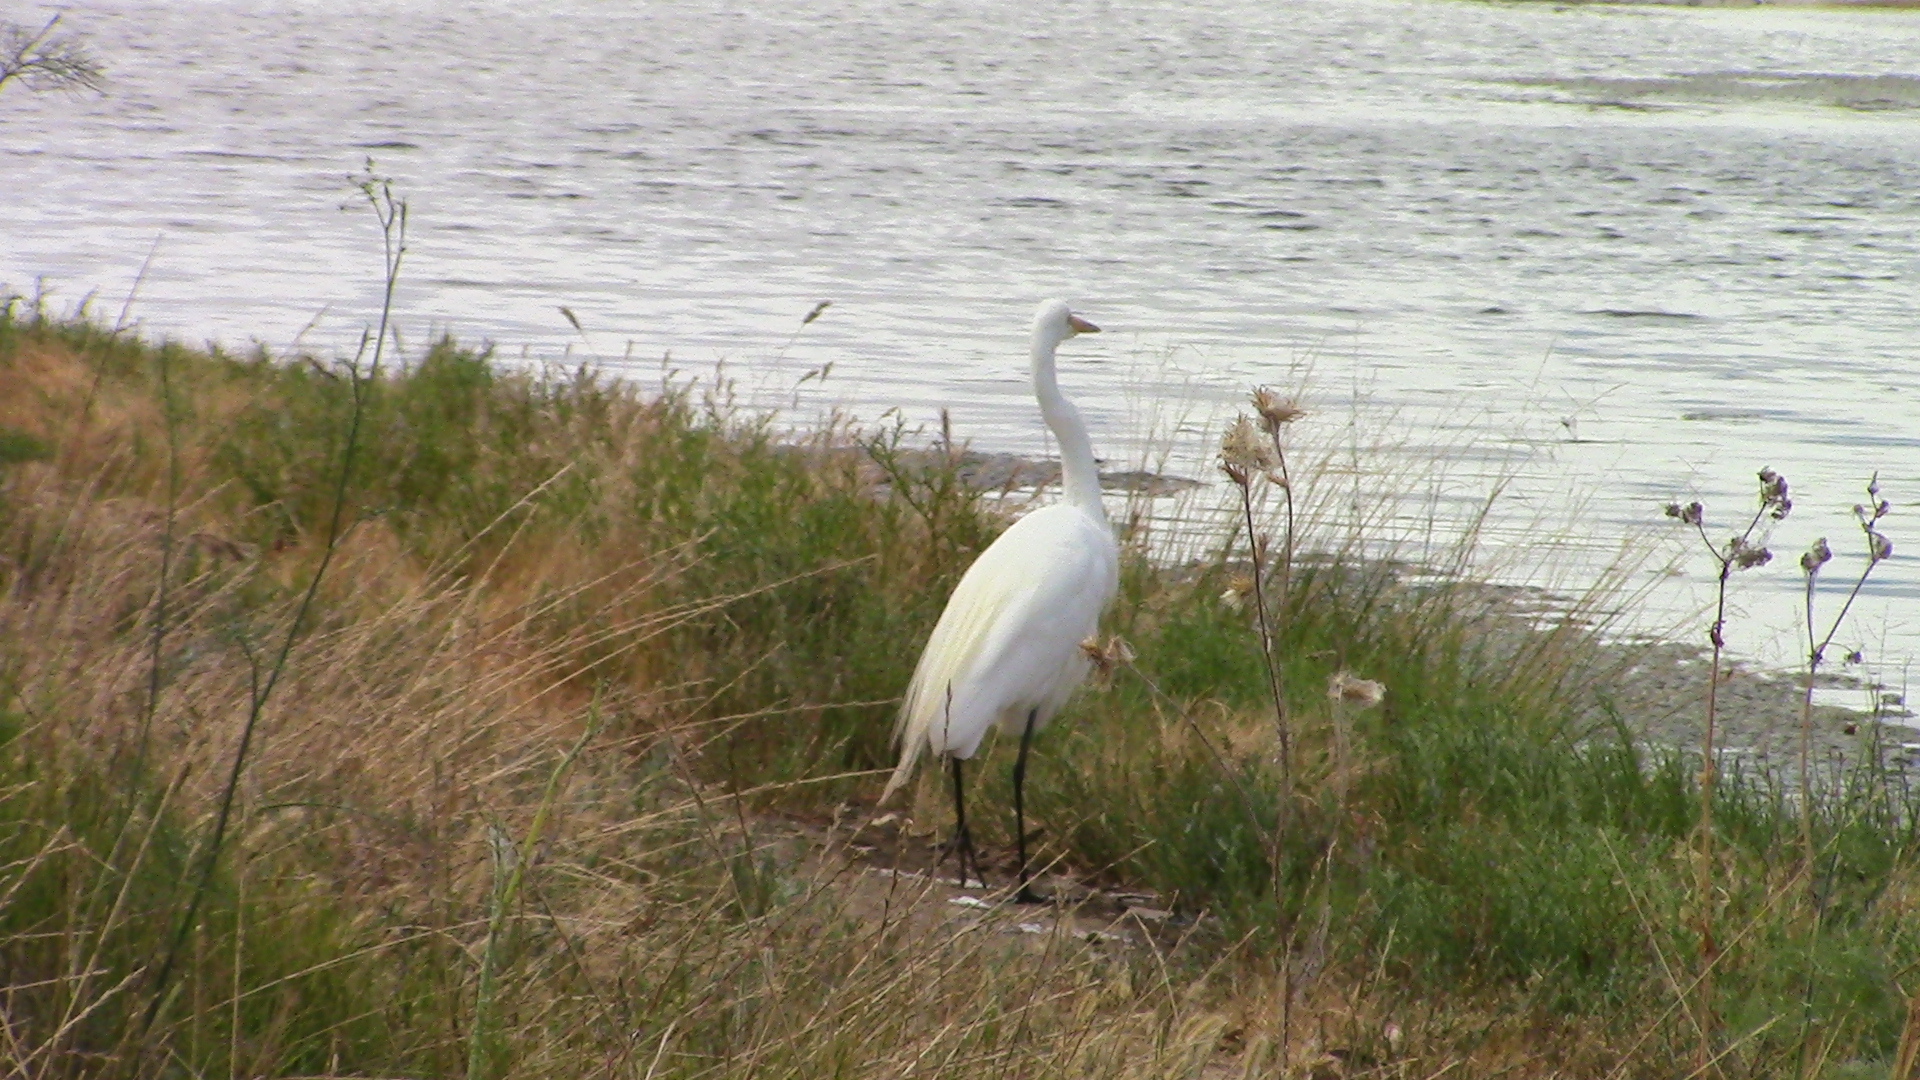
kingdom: Animalia
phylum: Chordata
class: Aves
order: Pelecaniformes
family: Ardeidae
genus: Ardea
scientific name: Ardea alba
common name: Great egret
